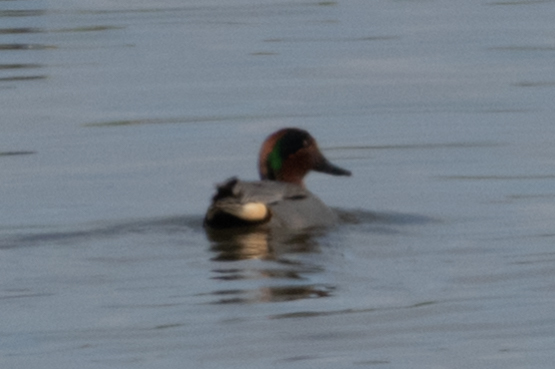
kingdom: Animalia
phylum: Chordata
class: Aves
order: Anseriformes
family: Anatidae
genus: Anas
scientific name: Anas crecca
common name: Eurasian teal
